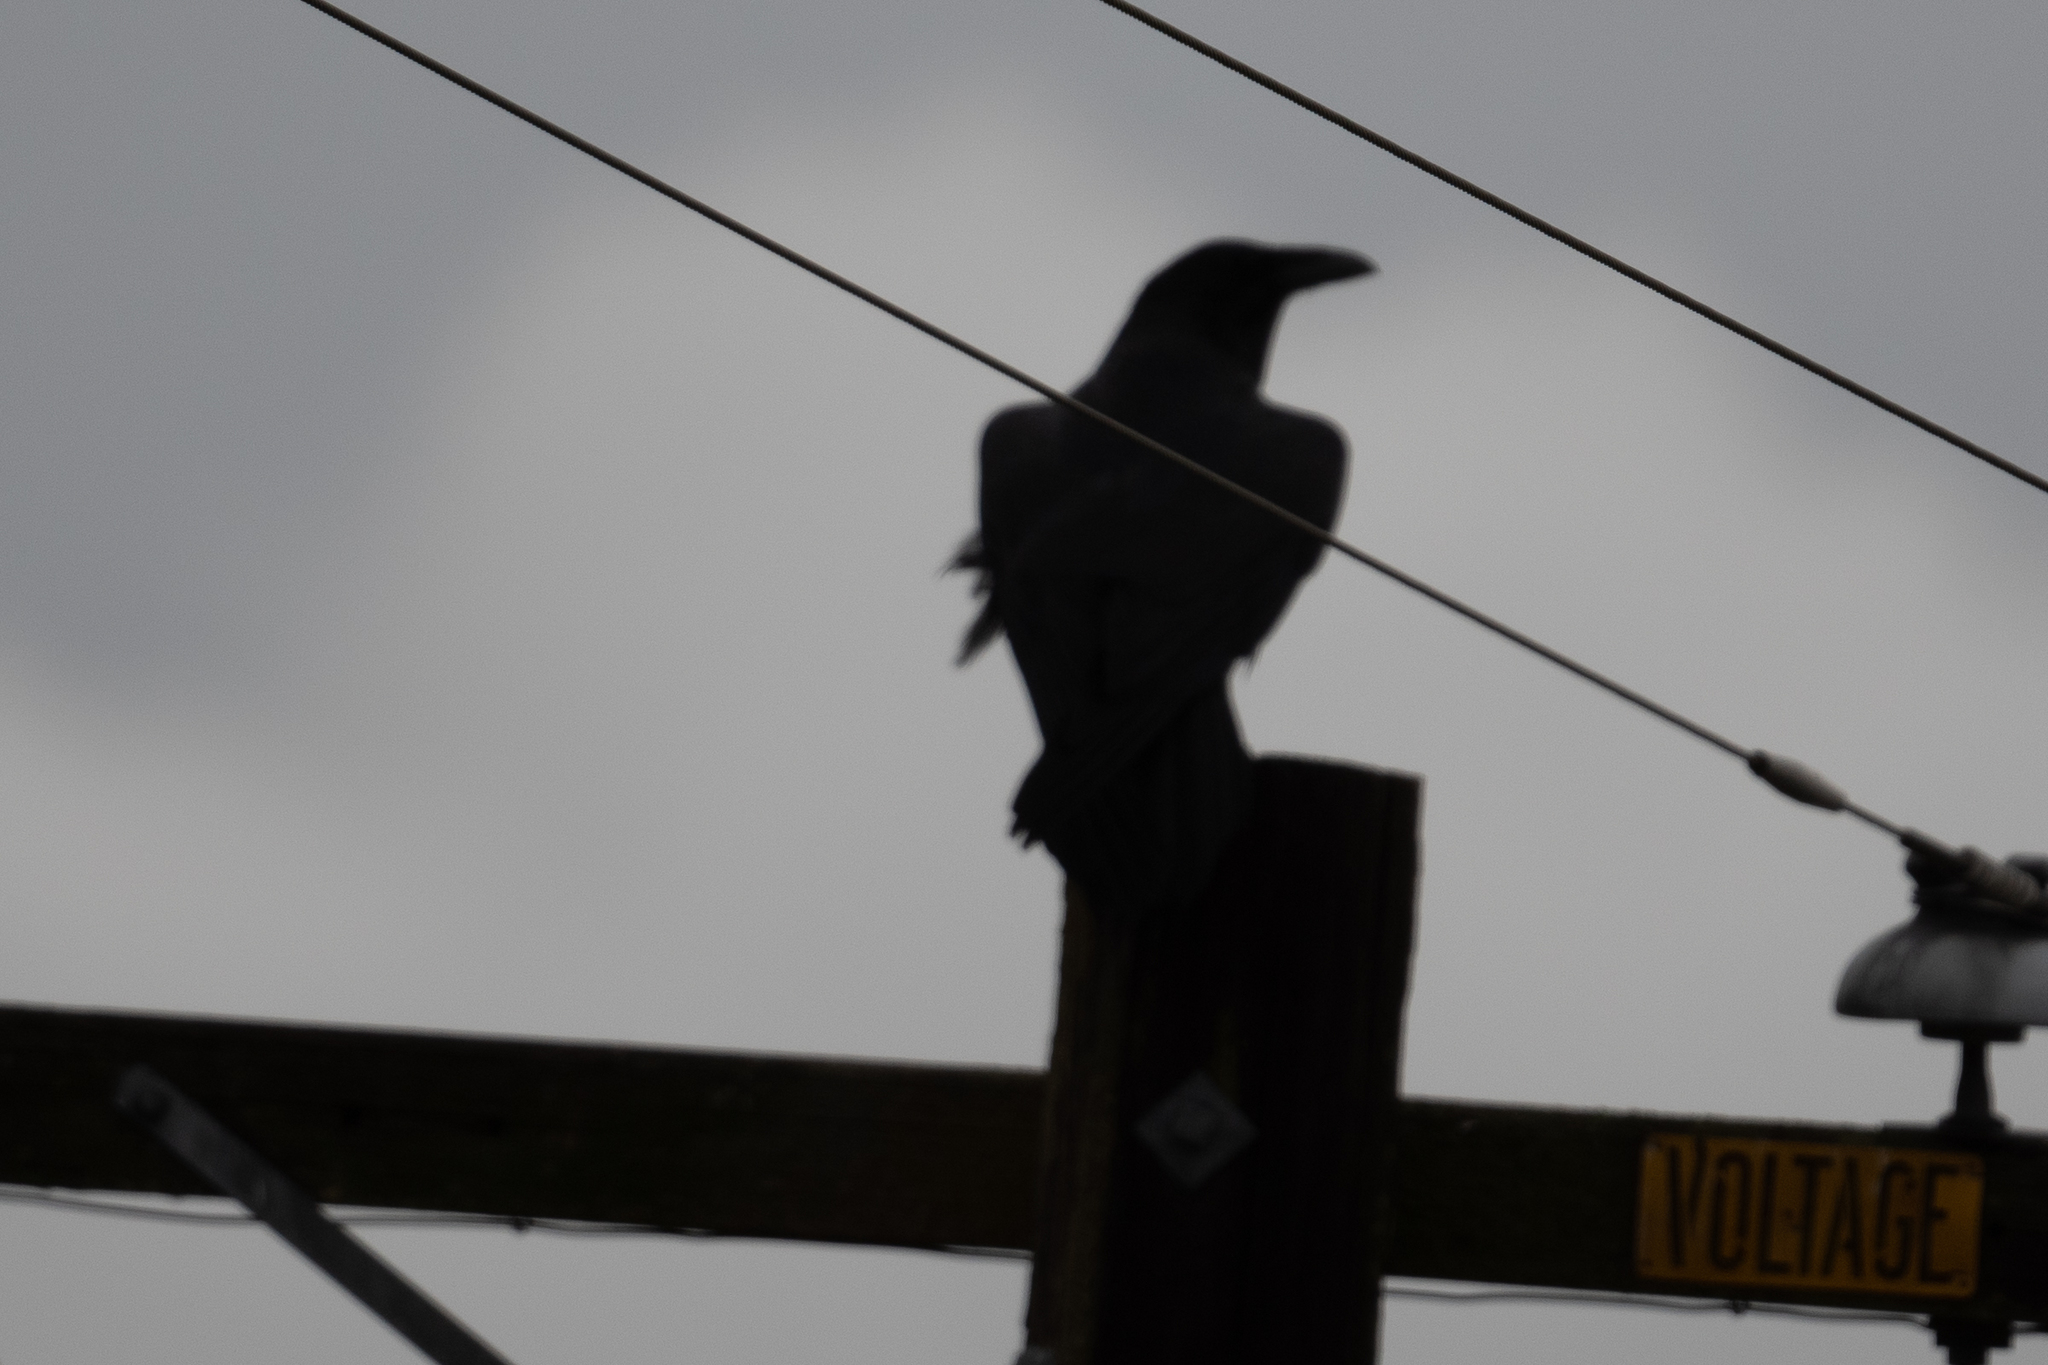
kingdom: Animalia
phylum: Chordata
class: Aves
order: Passeriformes
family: Corvidae
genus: Corvus
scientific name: Corvus corax
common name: Common raven
